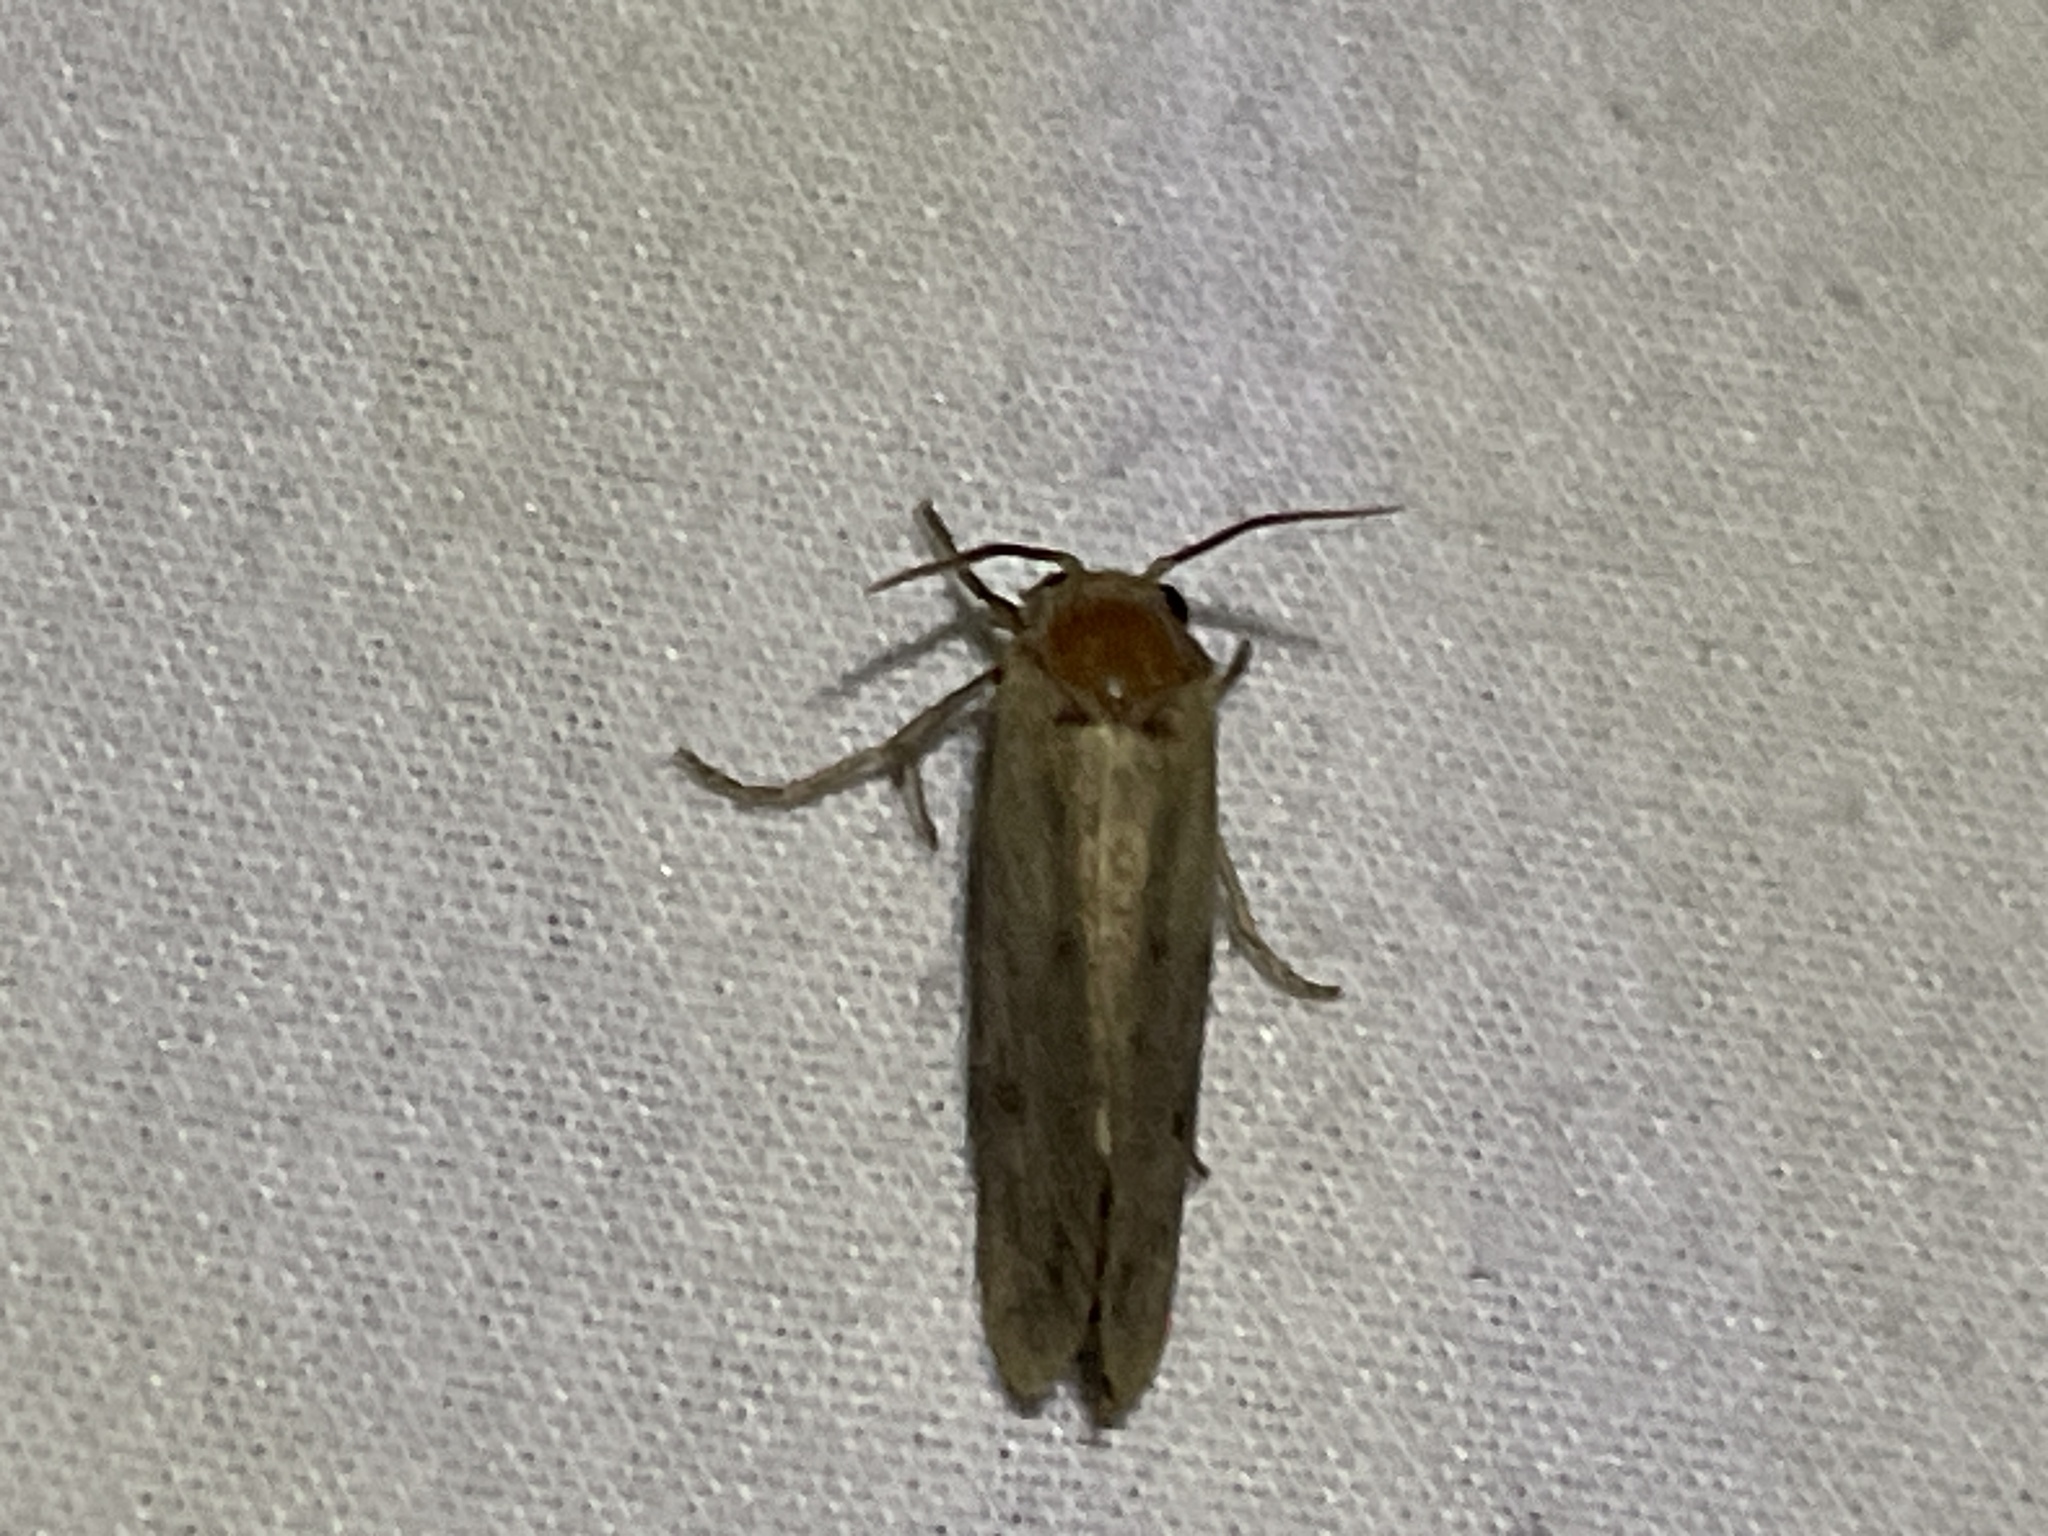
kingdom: Animalia
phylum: Arthropoda
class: Insecta
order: Lepidoptera
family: Tineidae
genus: Acrolophus
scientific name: Acrolophus popeanella
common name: Clemens' grass tubeworm moth
